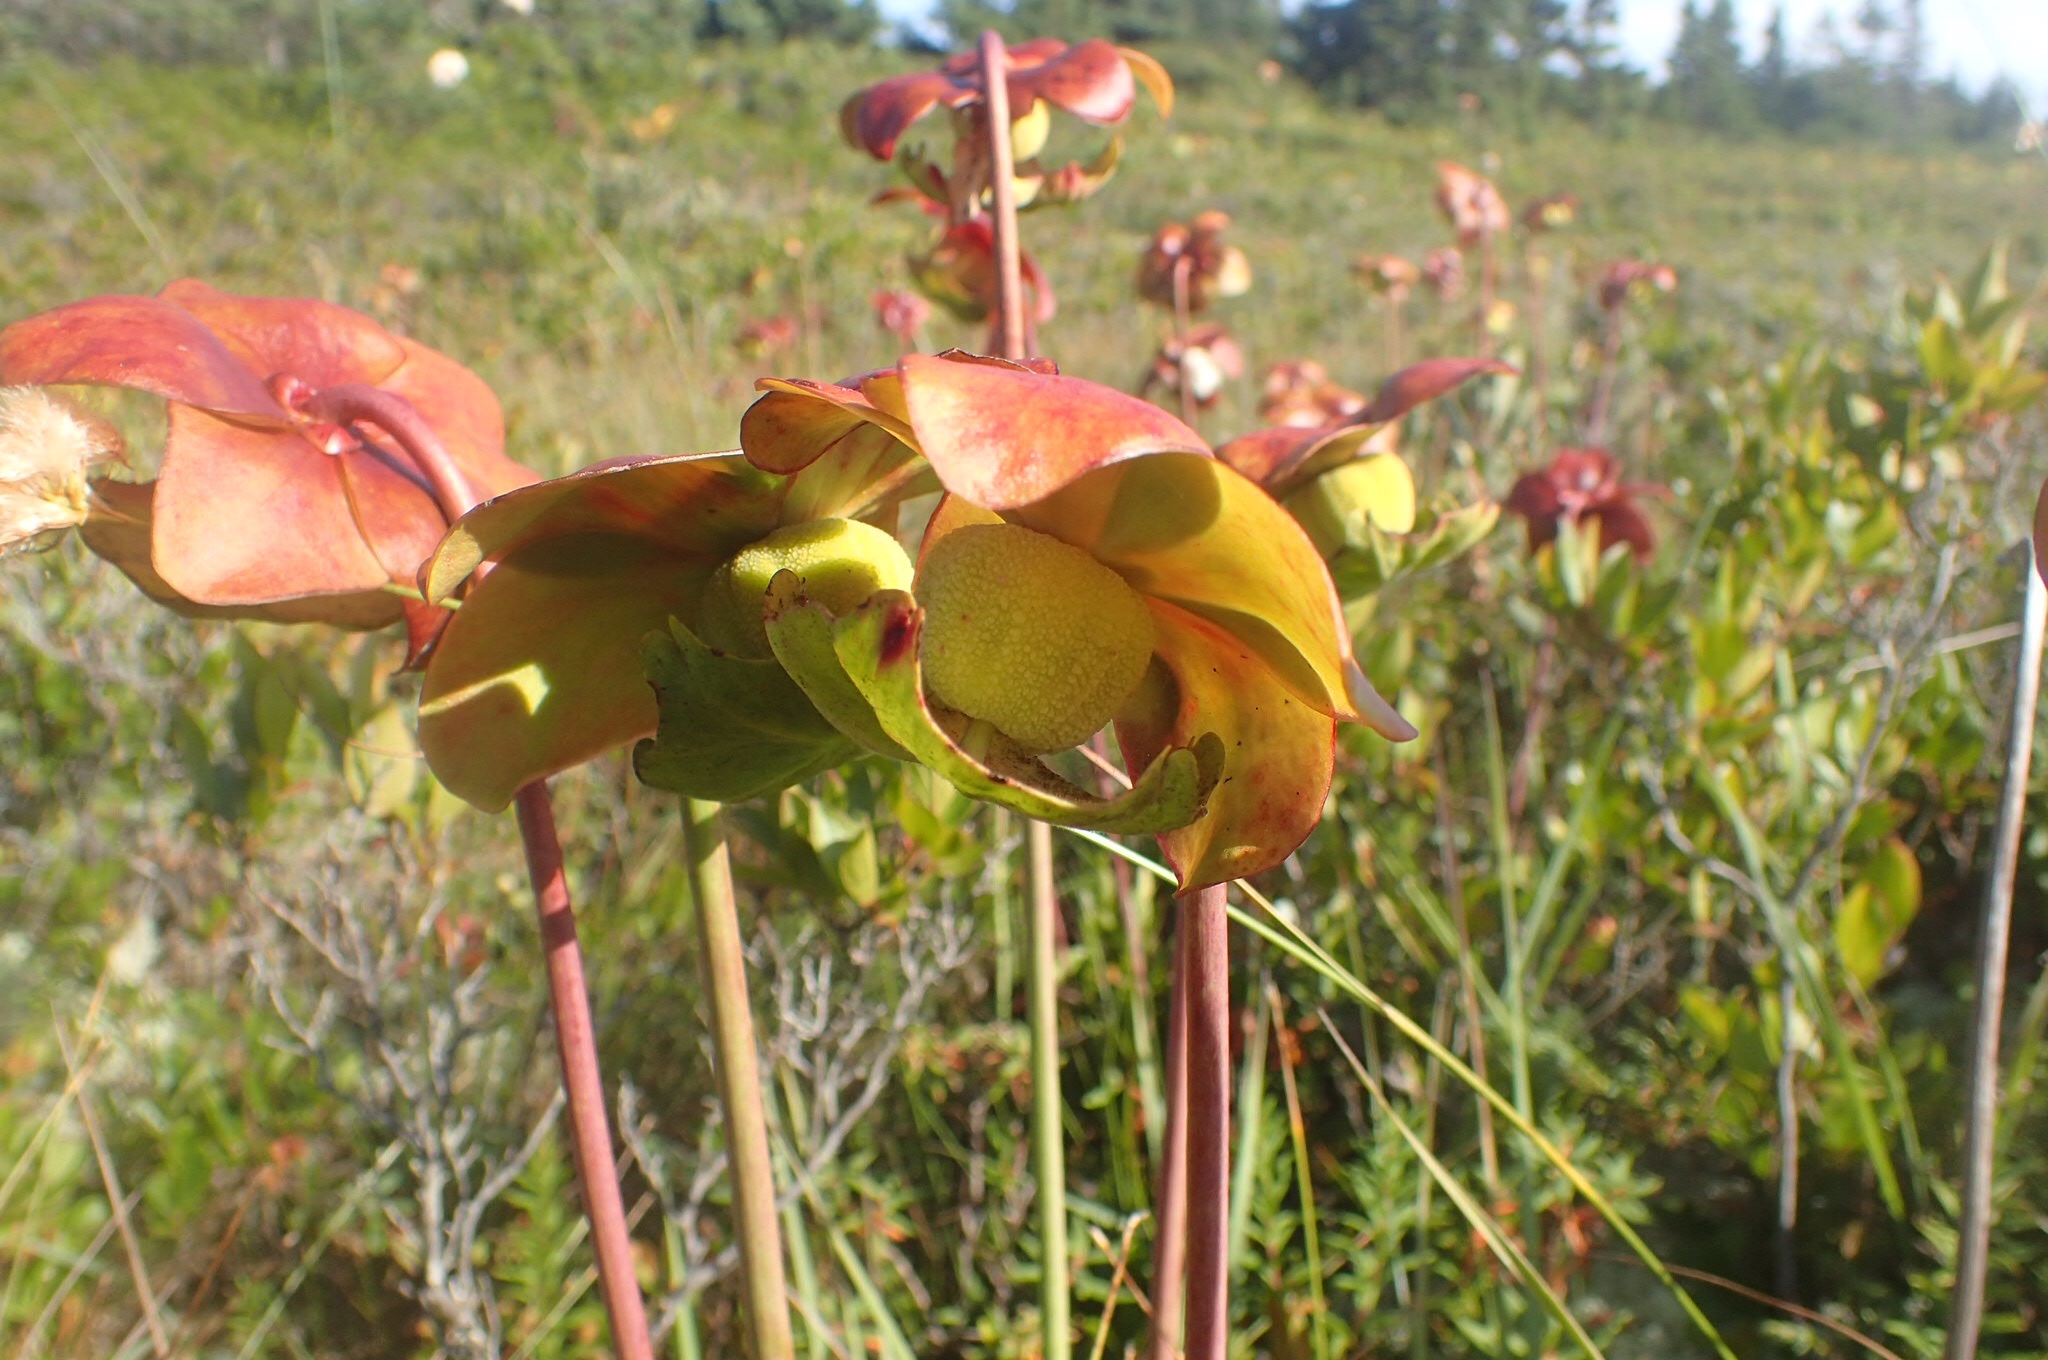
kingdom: Plantae
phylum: Tracheophyta
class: Magnoliopsida
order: Ericales
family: Sarraceniaceae
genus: Sarracenia
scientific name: Sarracenia purpurea
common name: Pitcherplant
